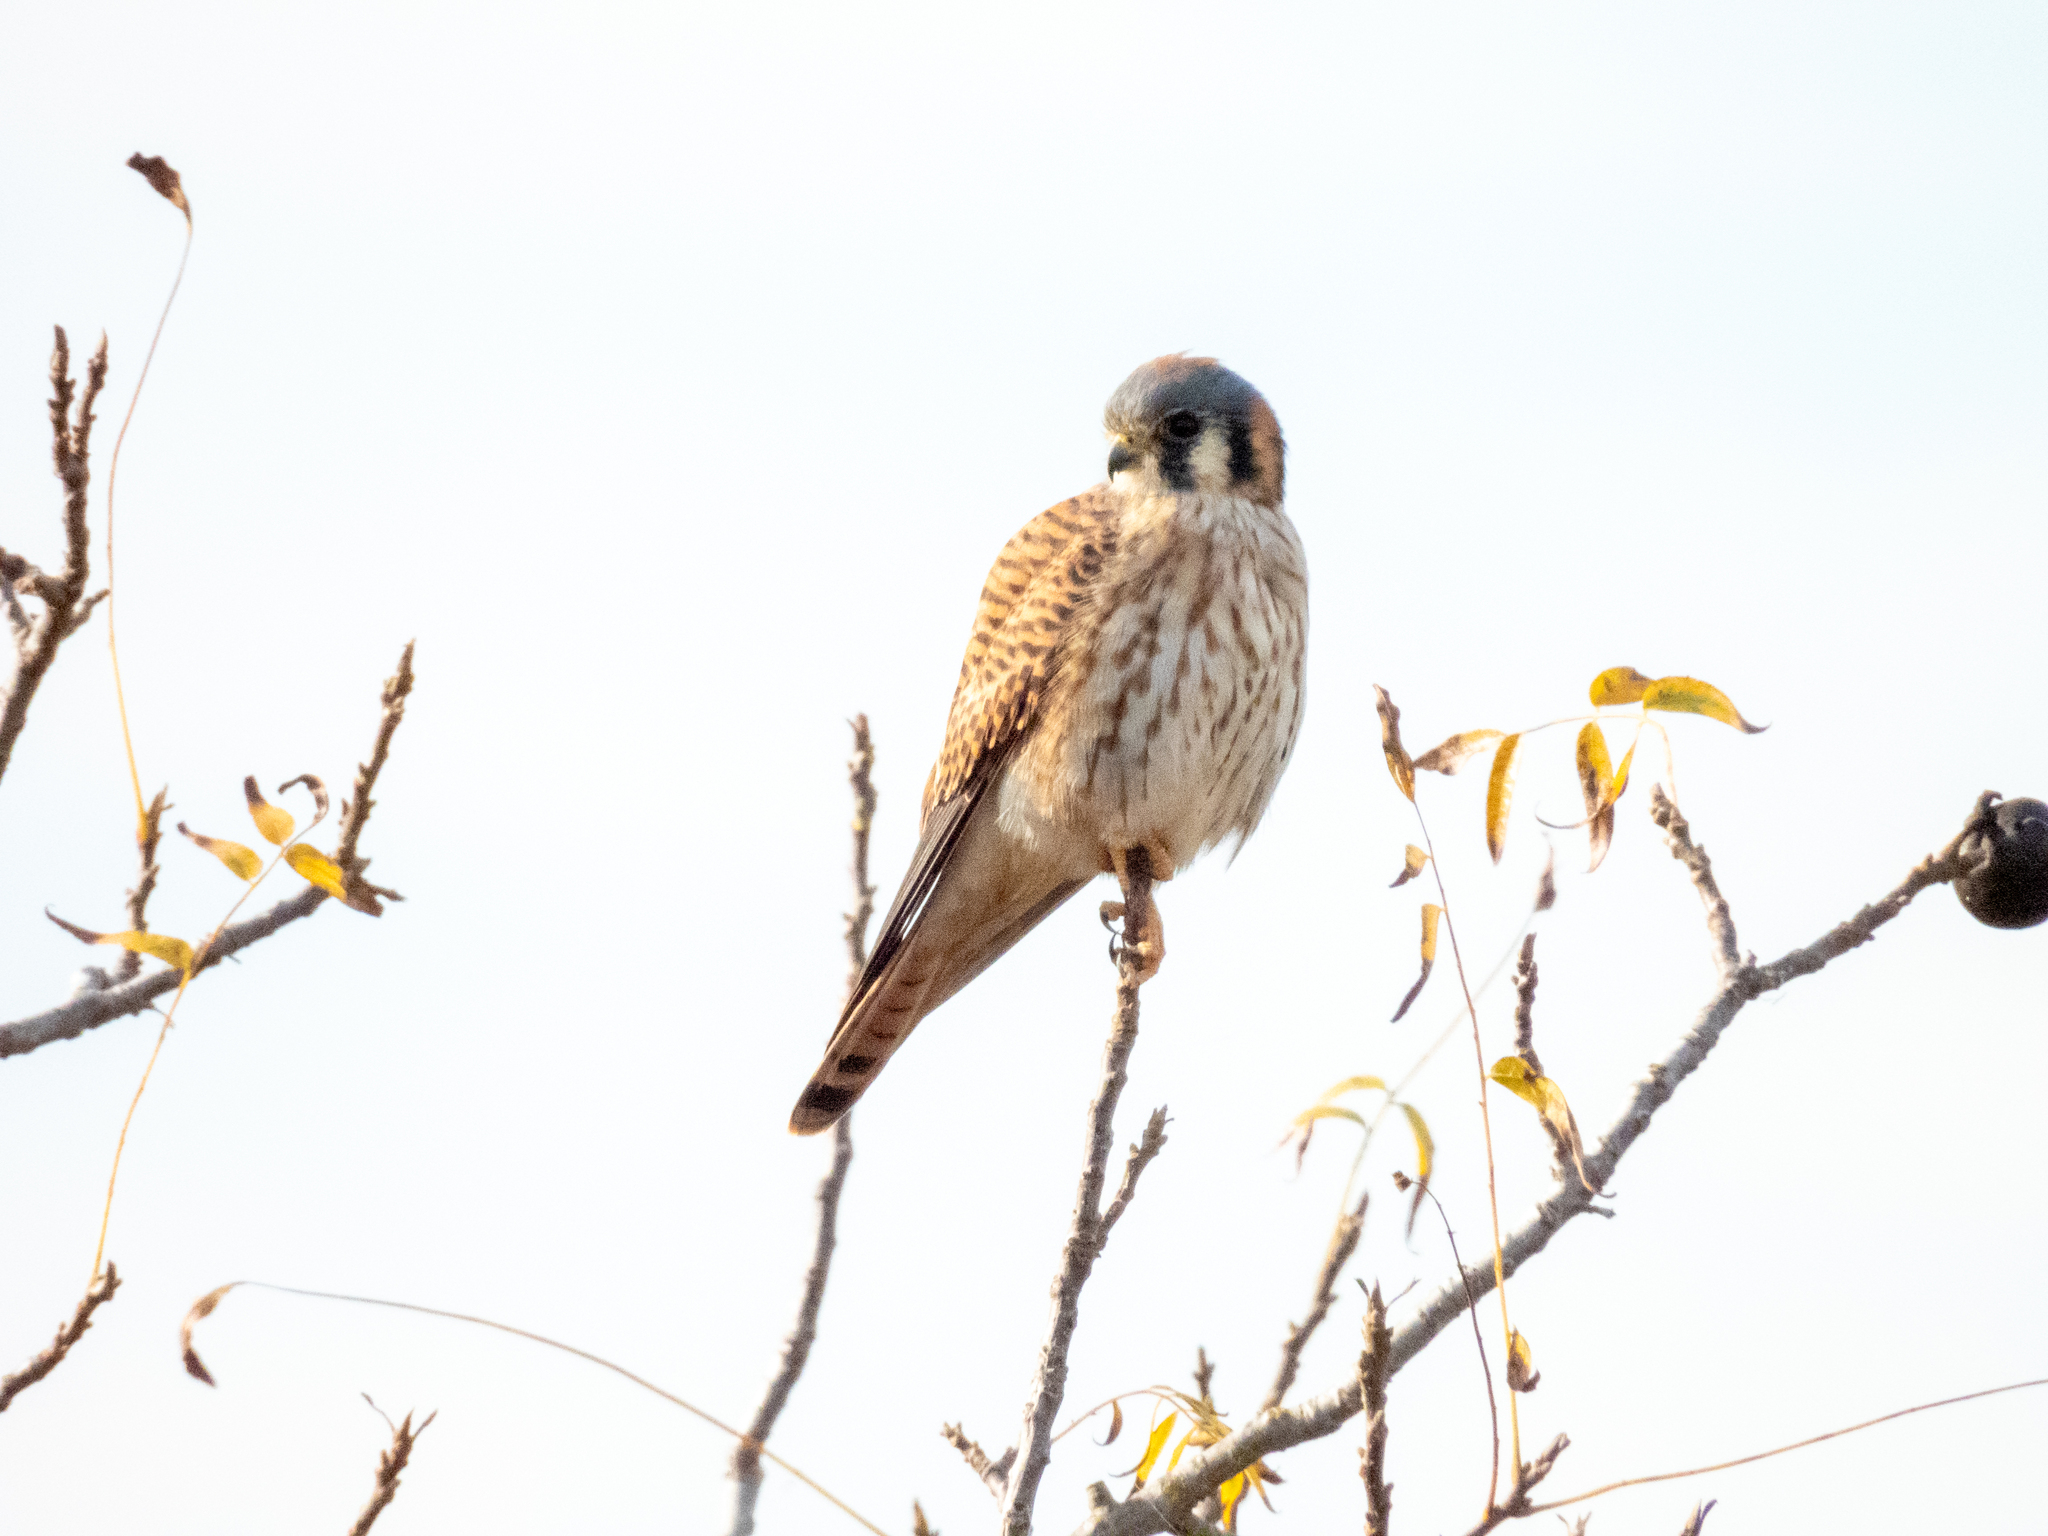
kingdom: Animalia
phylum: Chordata
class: Aves
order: Falconiformes
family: Falconidae
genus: Falco
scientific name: Falco sparverius
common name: American kestrel
